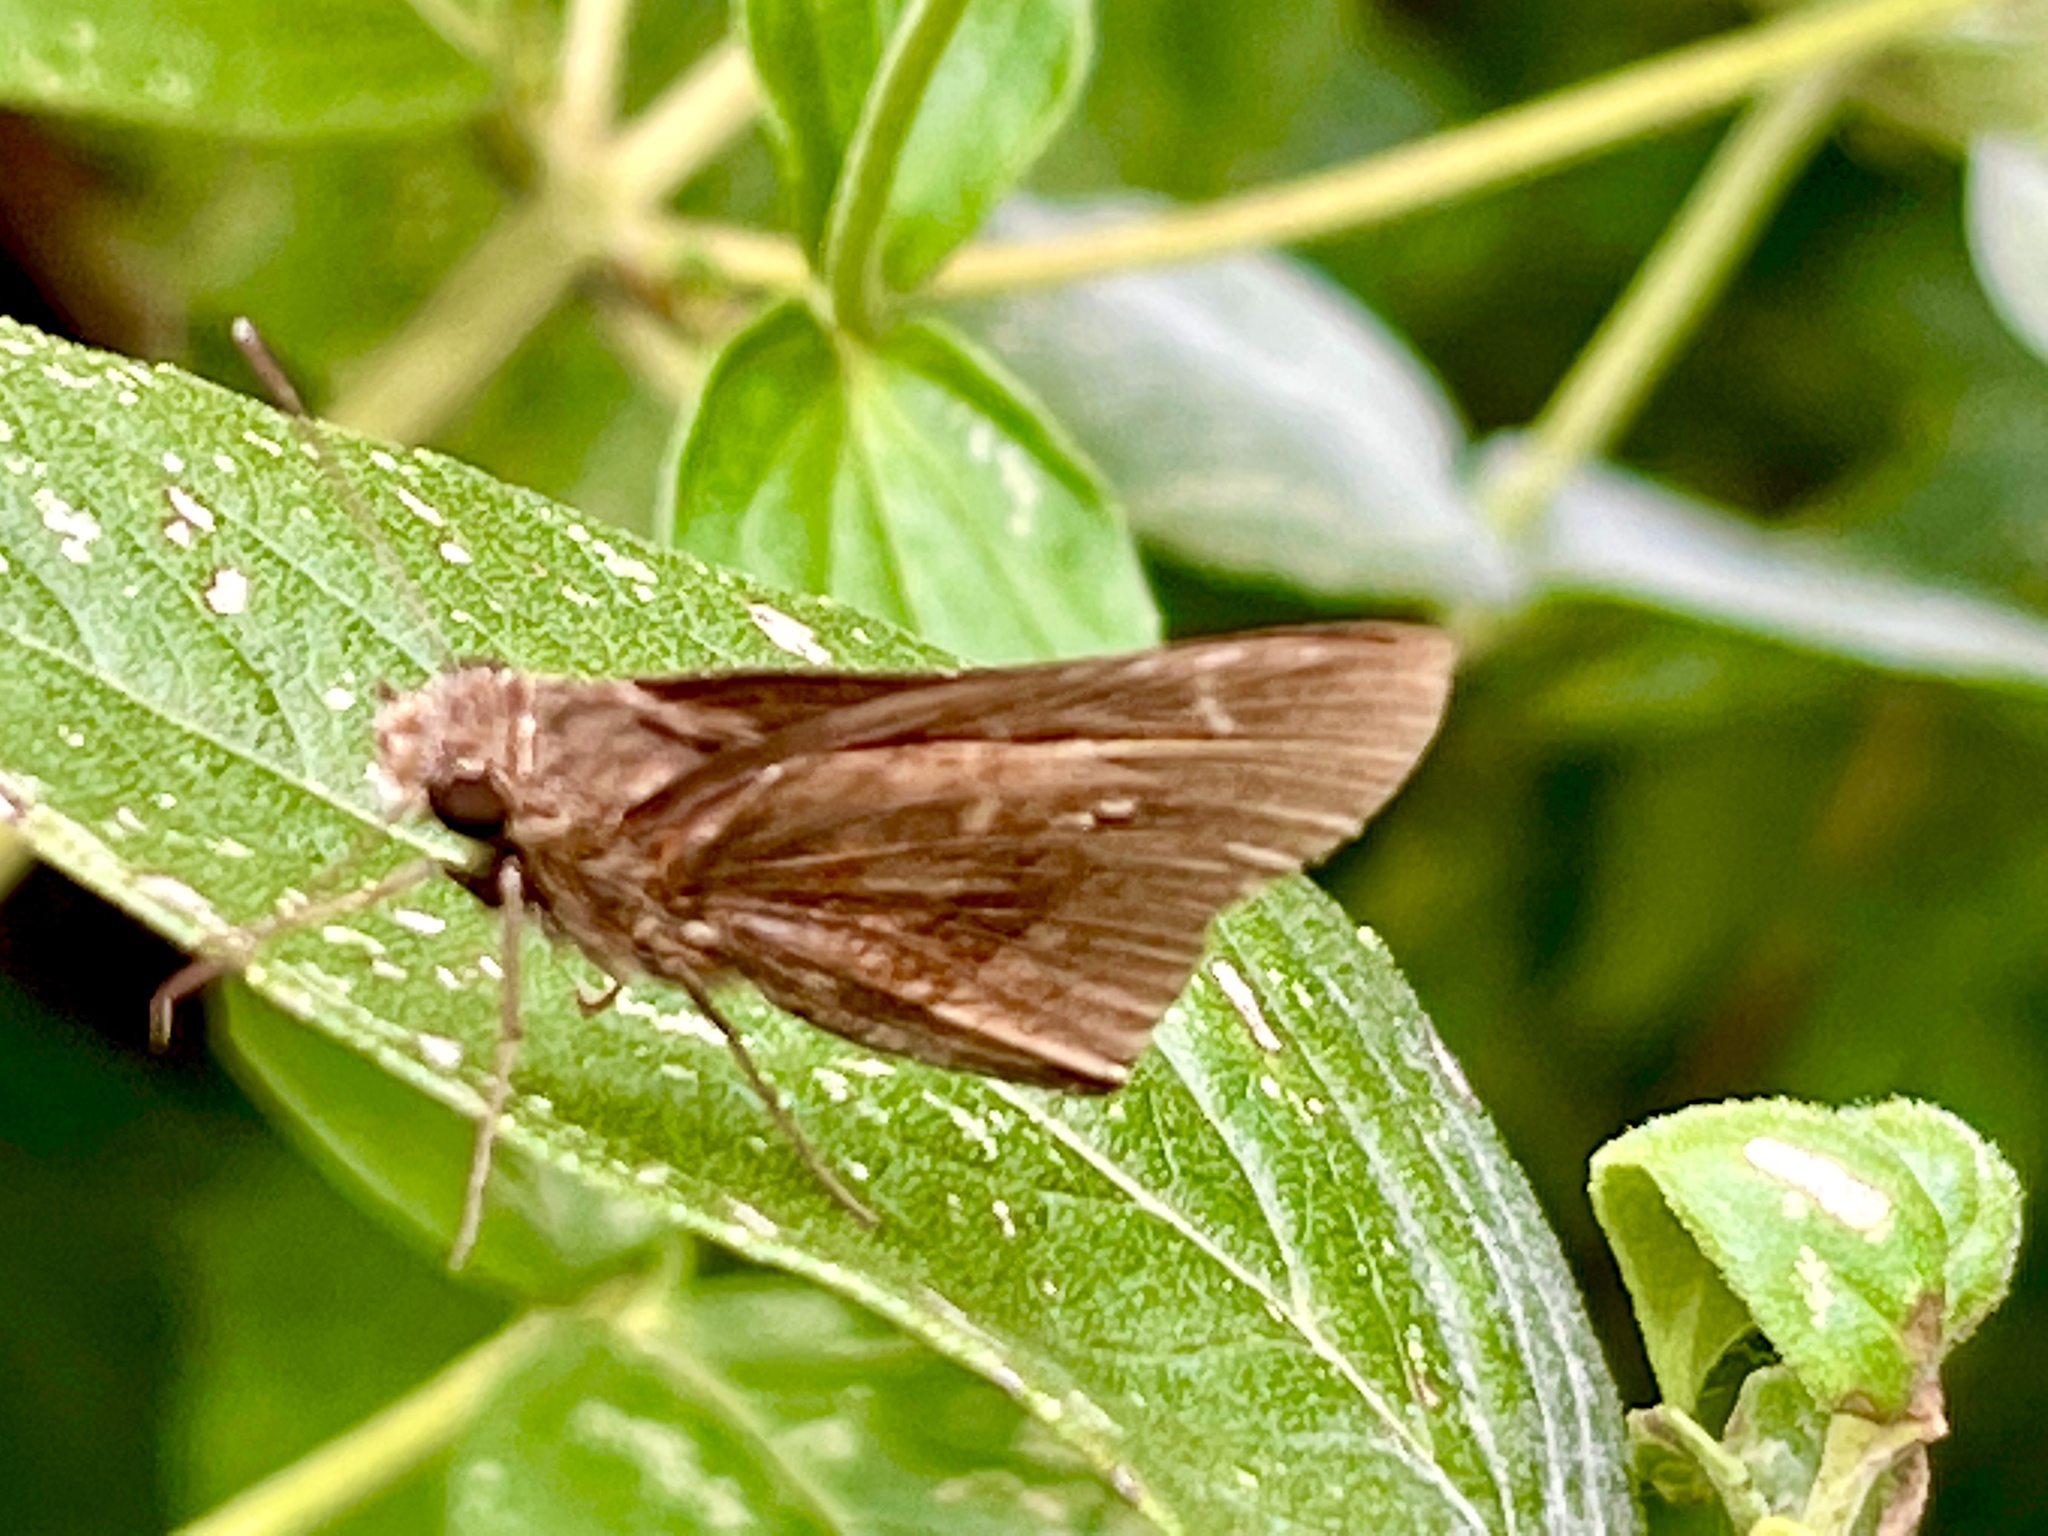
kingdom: Animalia
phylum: Arthropoda
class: Insecta
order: Lepidoptera
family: Hesperiidae
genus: Lerema
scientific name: Lerema accius
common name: Clouded skipper
